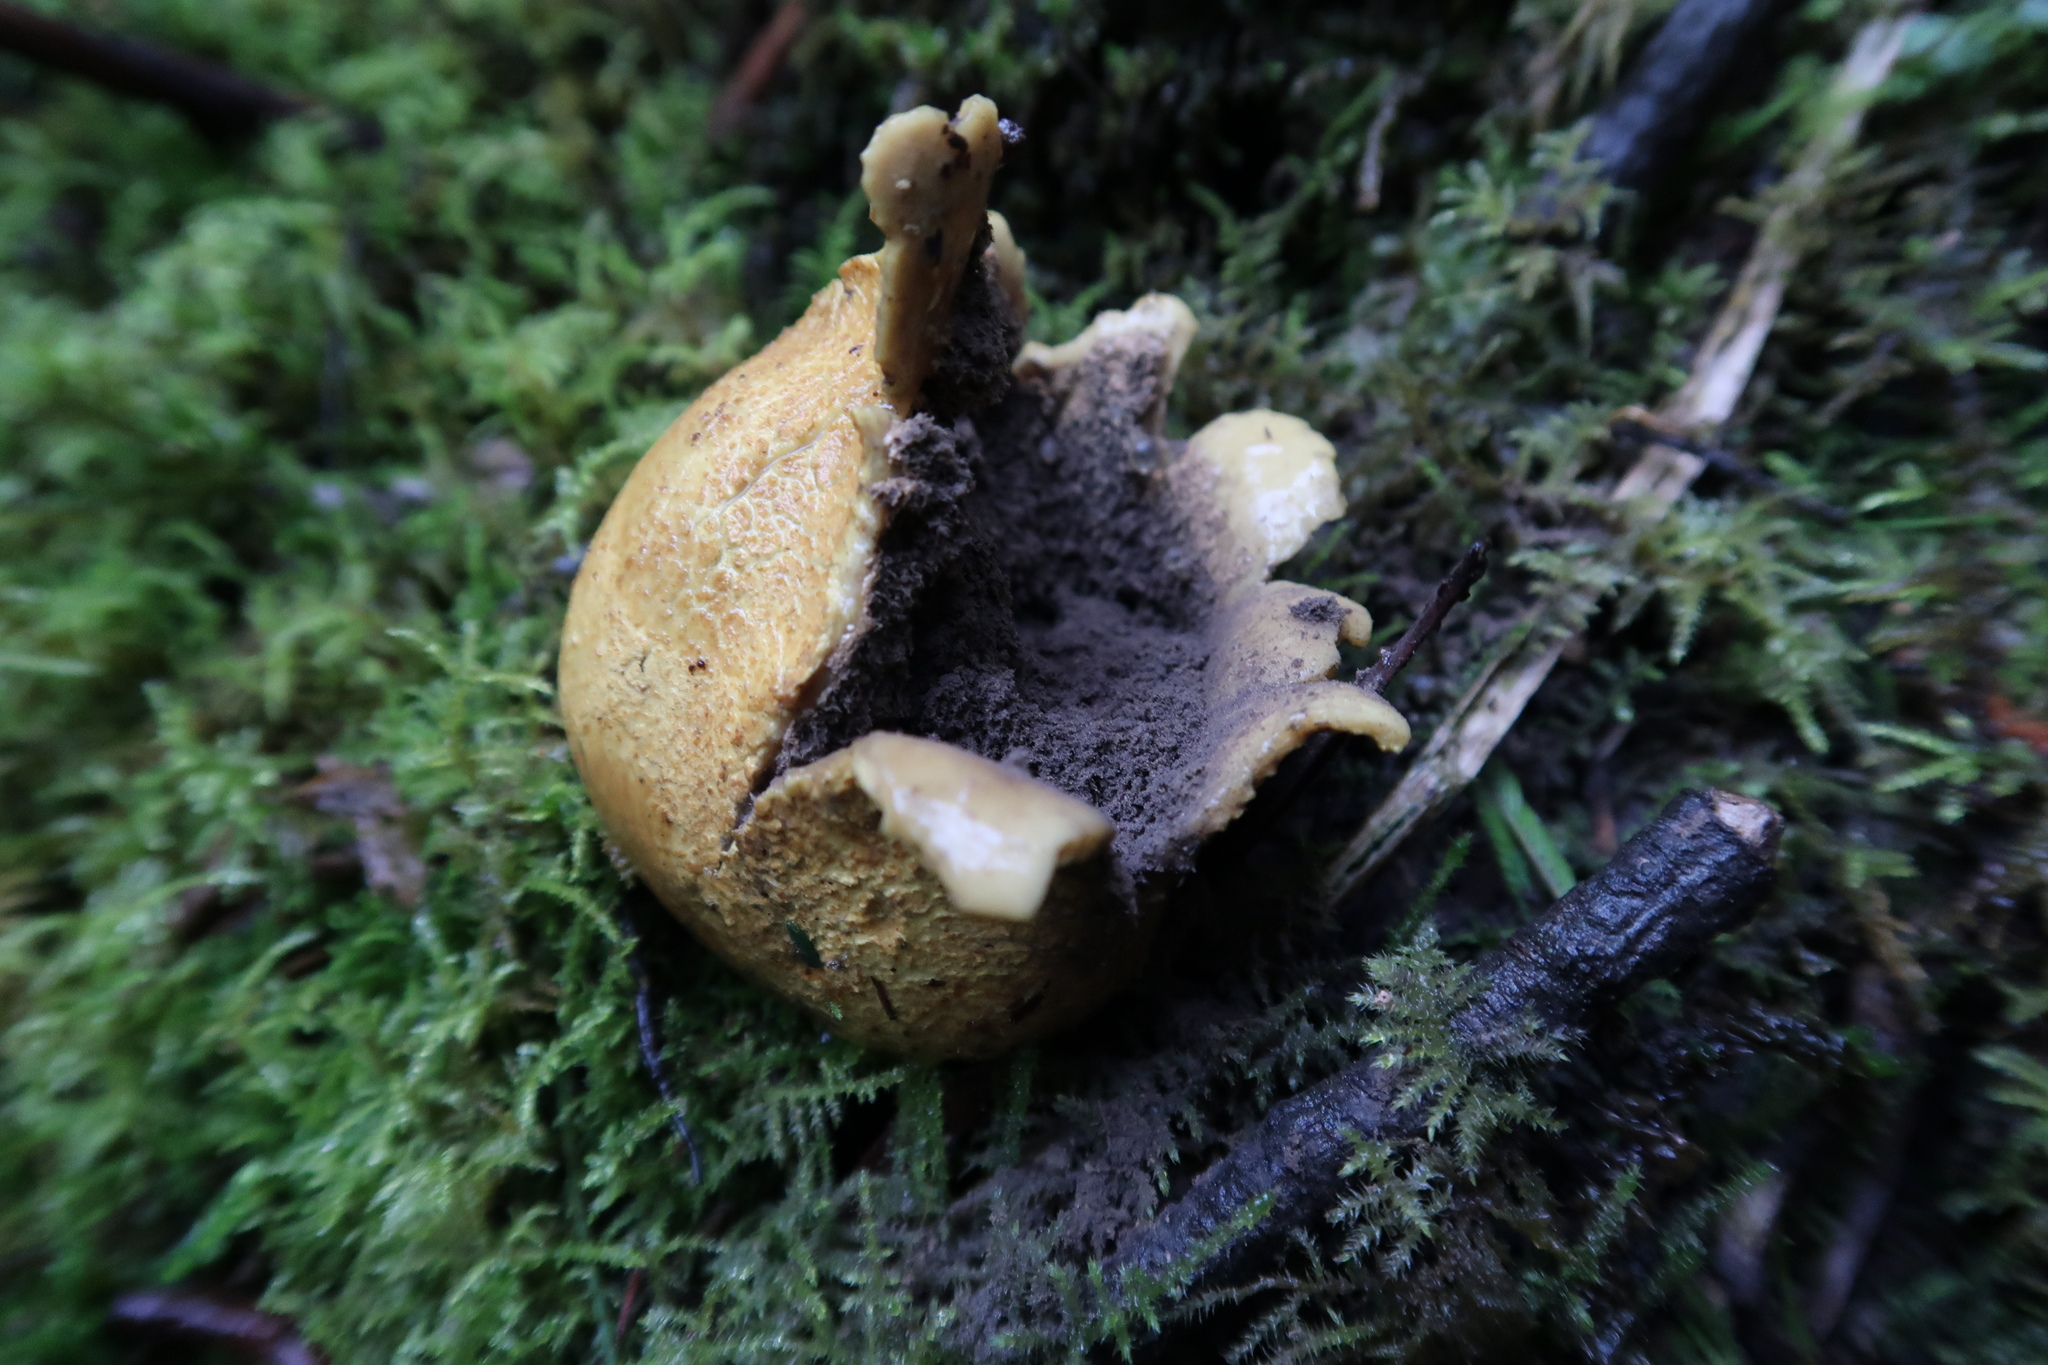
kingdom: Fungi
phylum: Basidiomycota
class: Agaricomycetes
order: Boletales
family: Sclerodermataceae
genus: Scleroderma
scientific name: Scleroderma cepa
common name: Onion earthball
